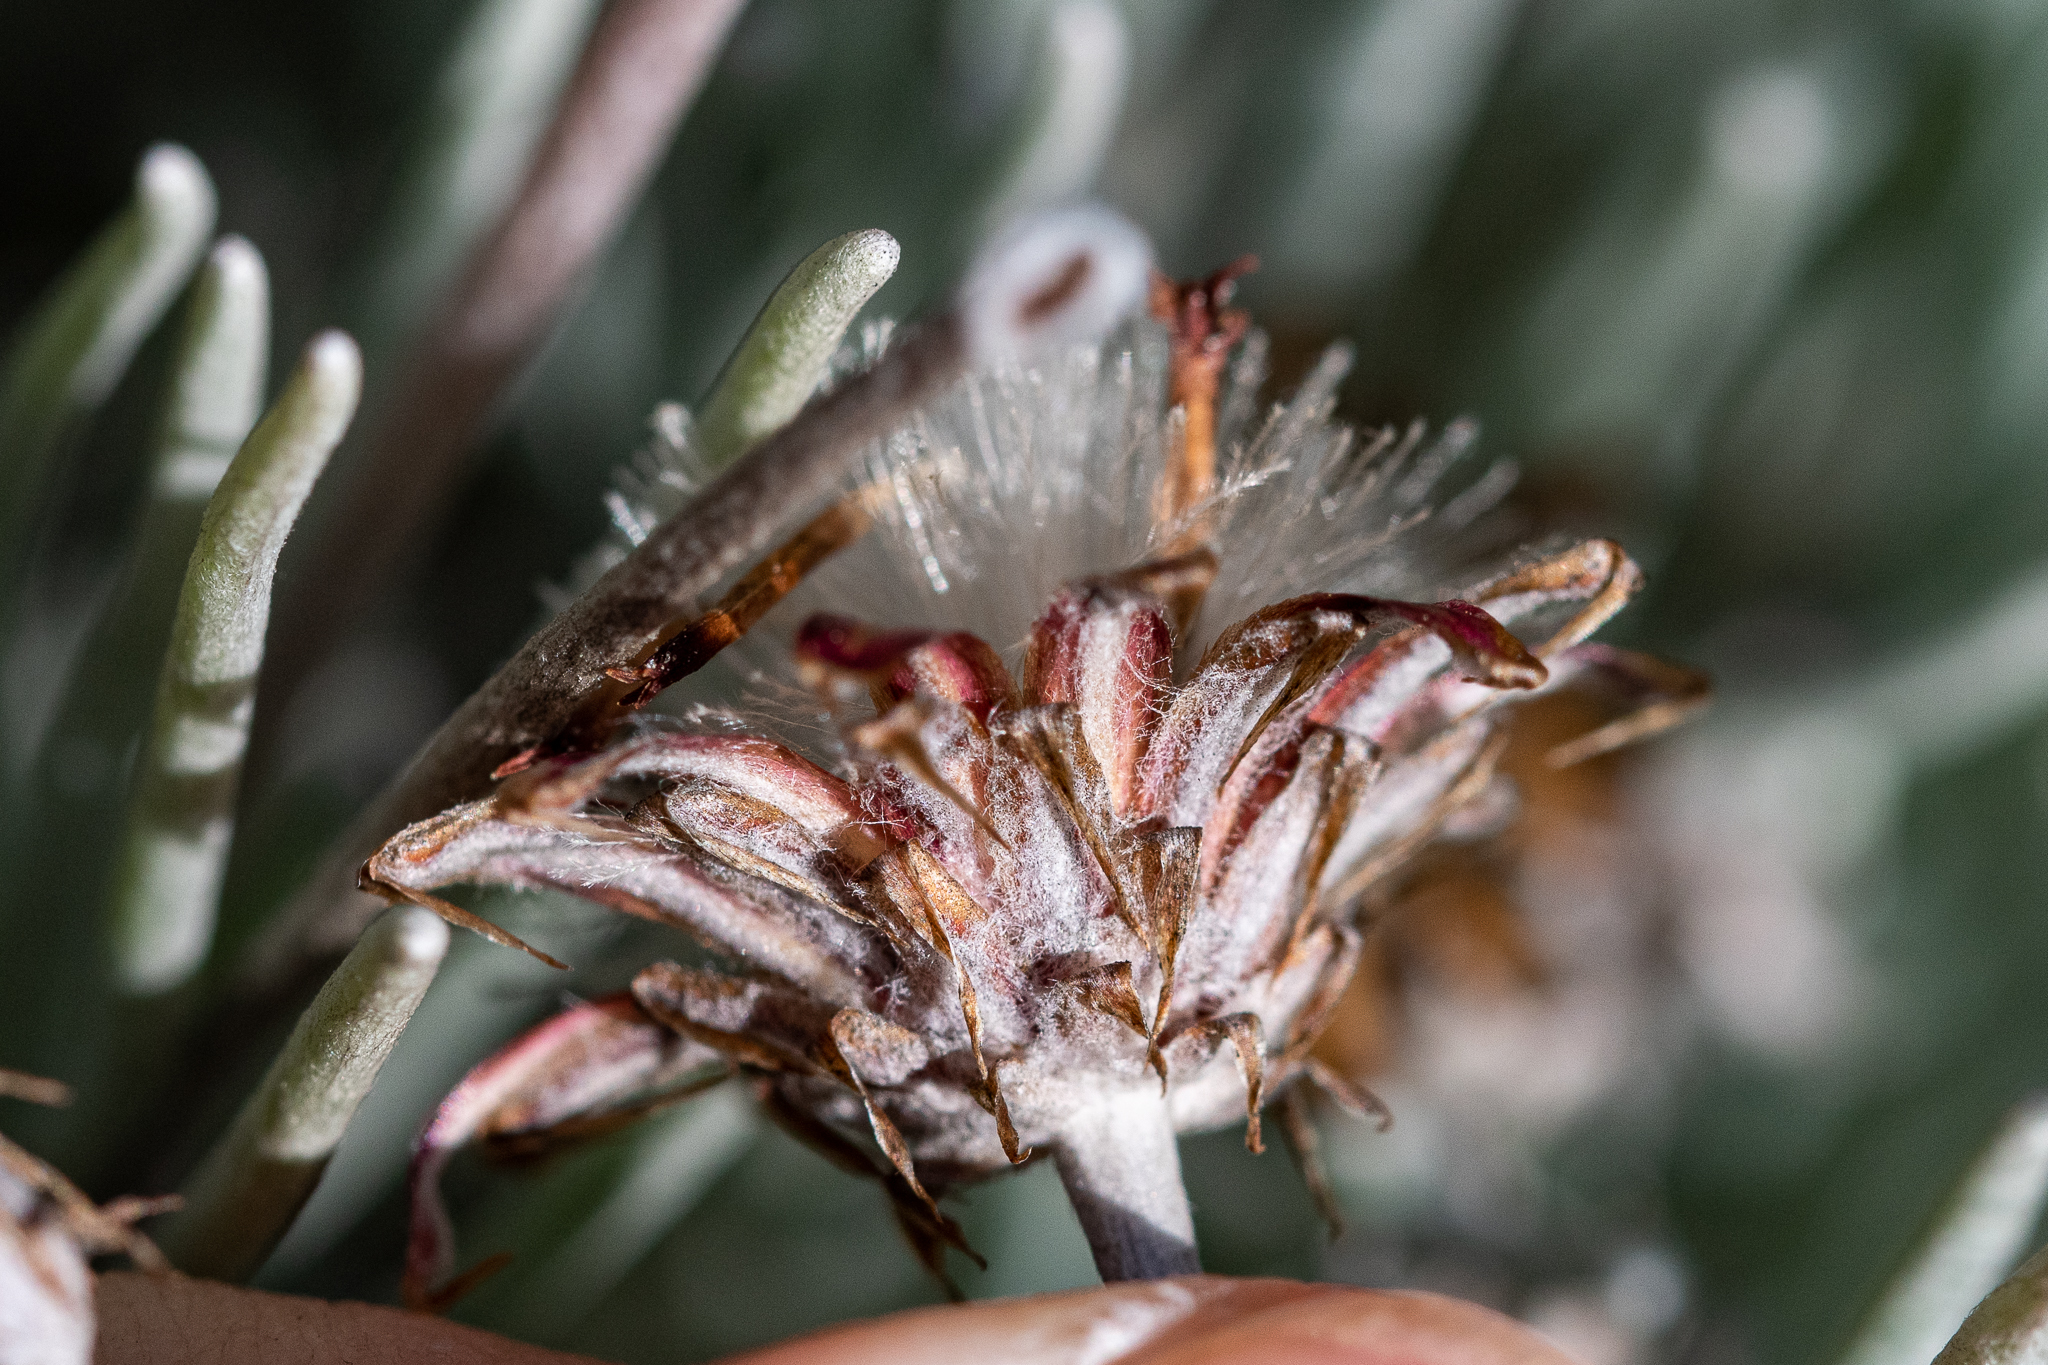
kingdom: Plantae
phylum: Tracheophyta
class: Magnoliopsida
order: Asterales
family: Asteraceae
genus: Syncarpha
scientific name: Syncarpha gnaphaloides
